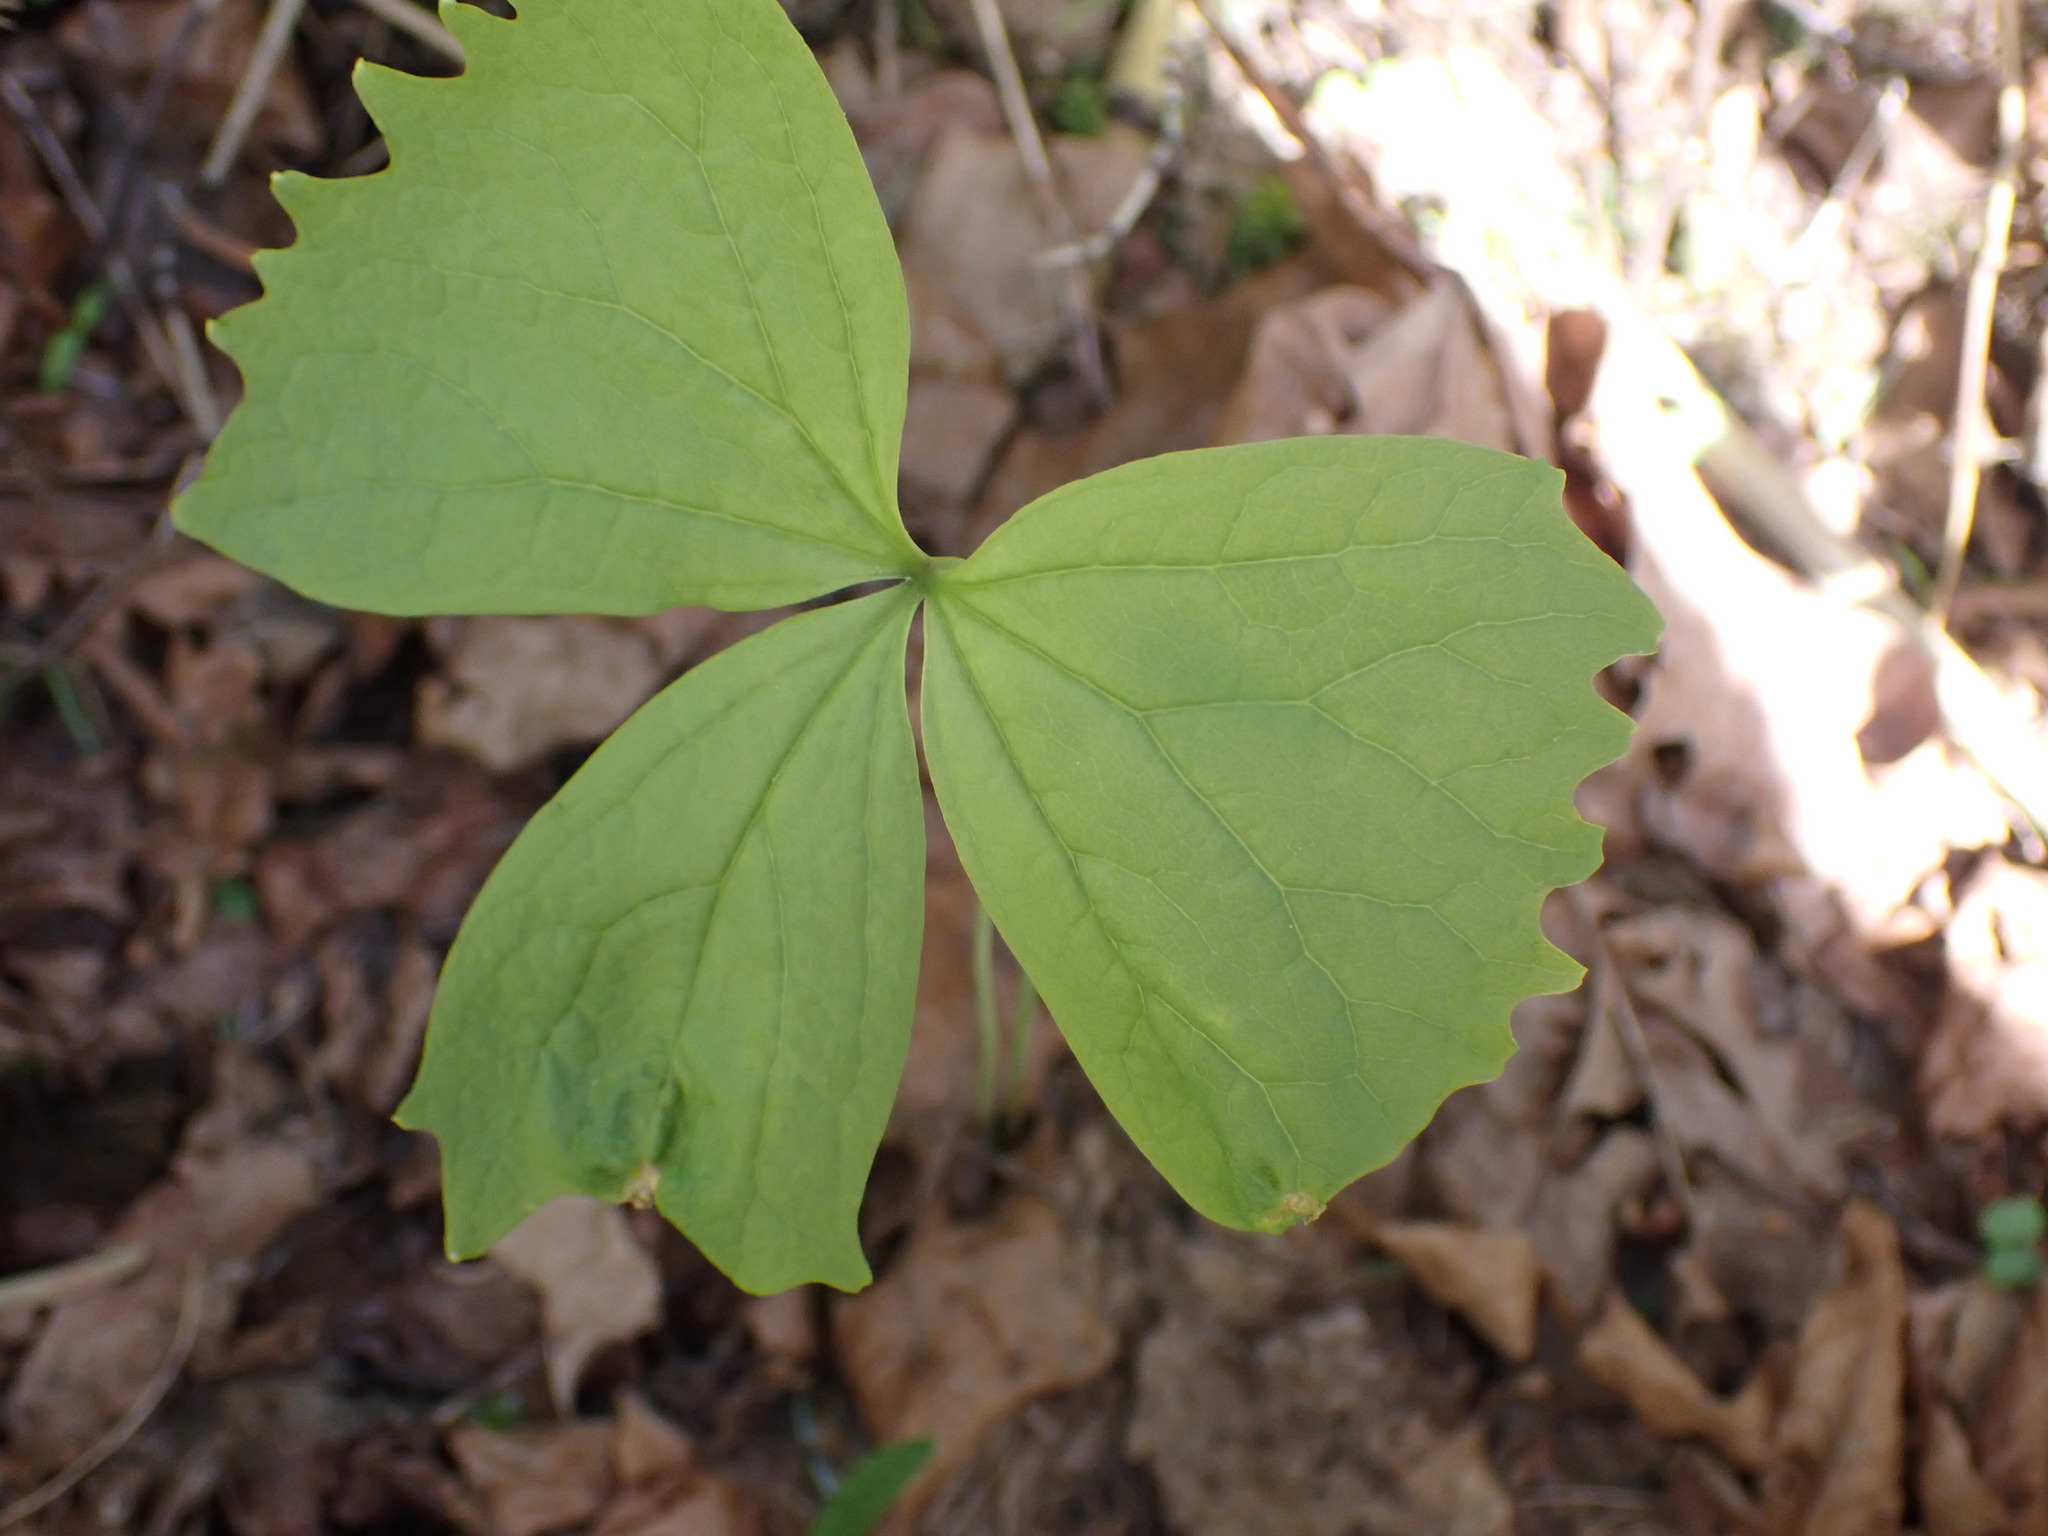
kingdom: Plantae
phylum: Tracheophyta
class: Magnoliopsida
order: Ranunculales
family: Berberidaceae
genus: Achlys
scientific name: Achlys triphylla
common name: Vanilla-leaf
